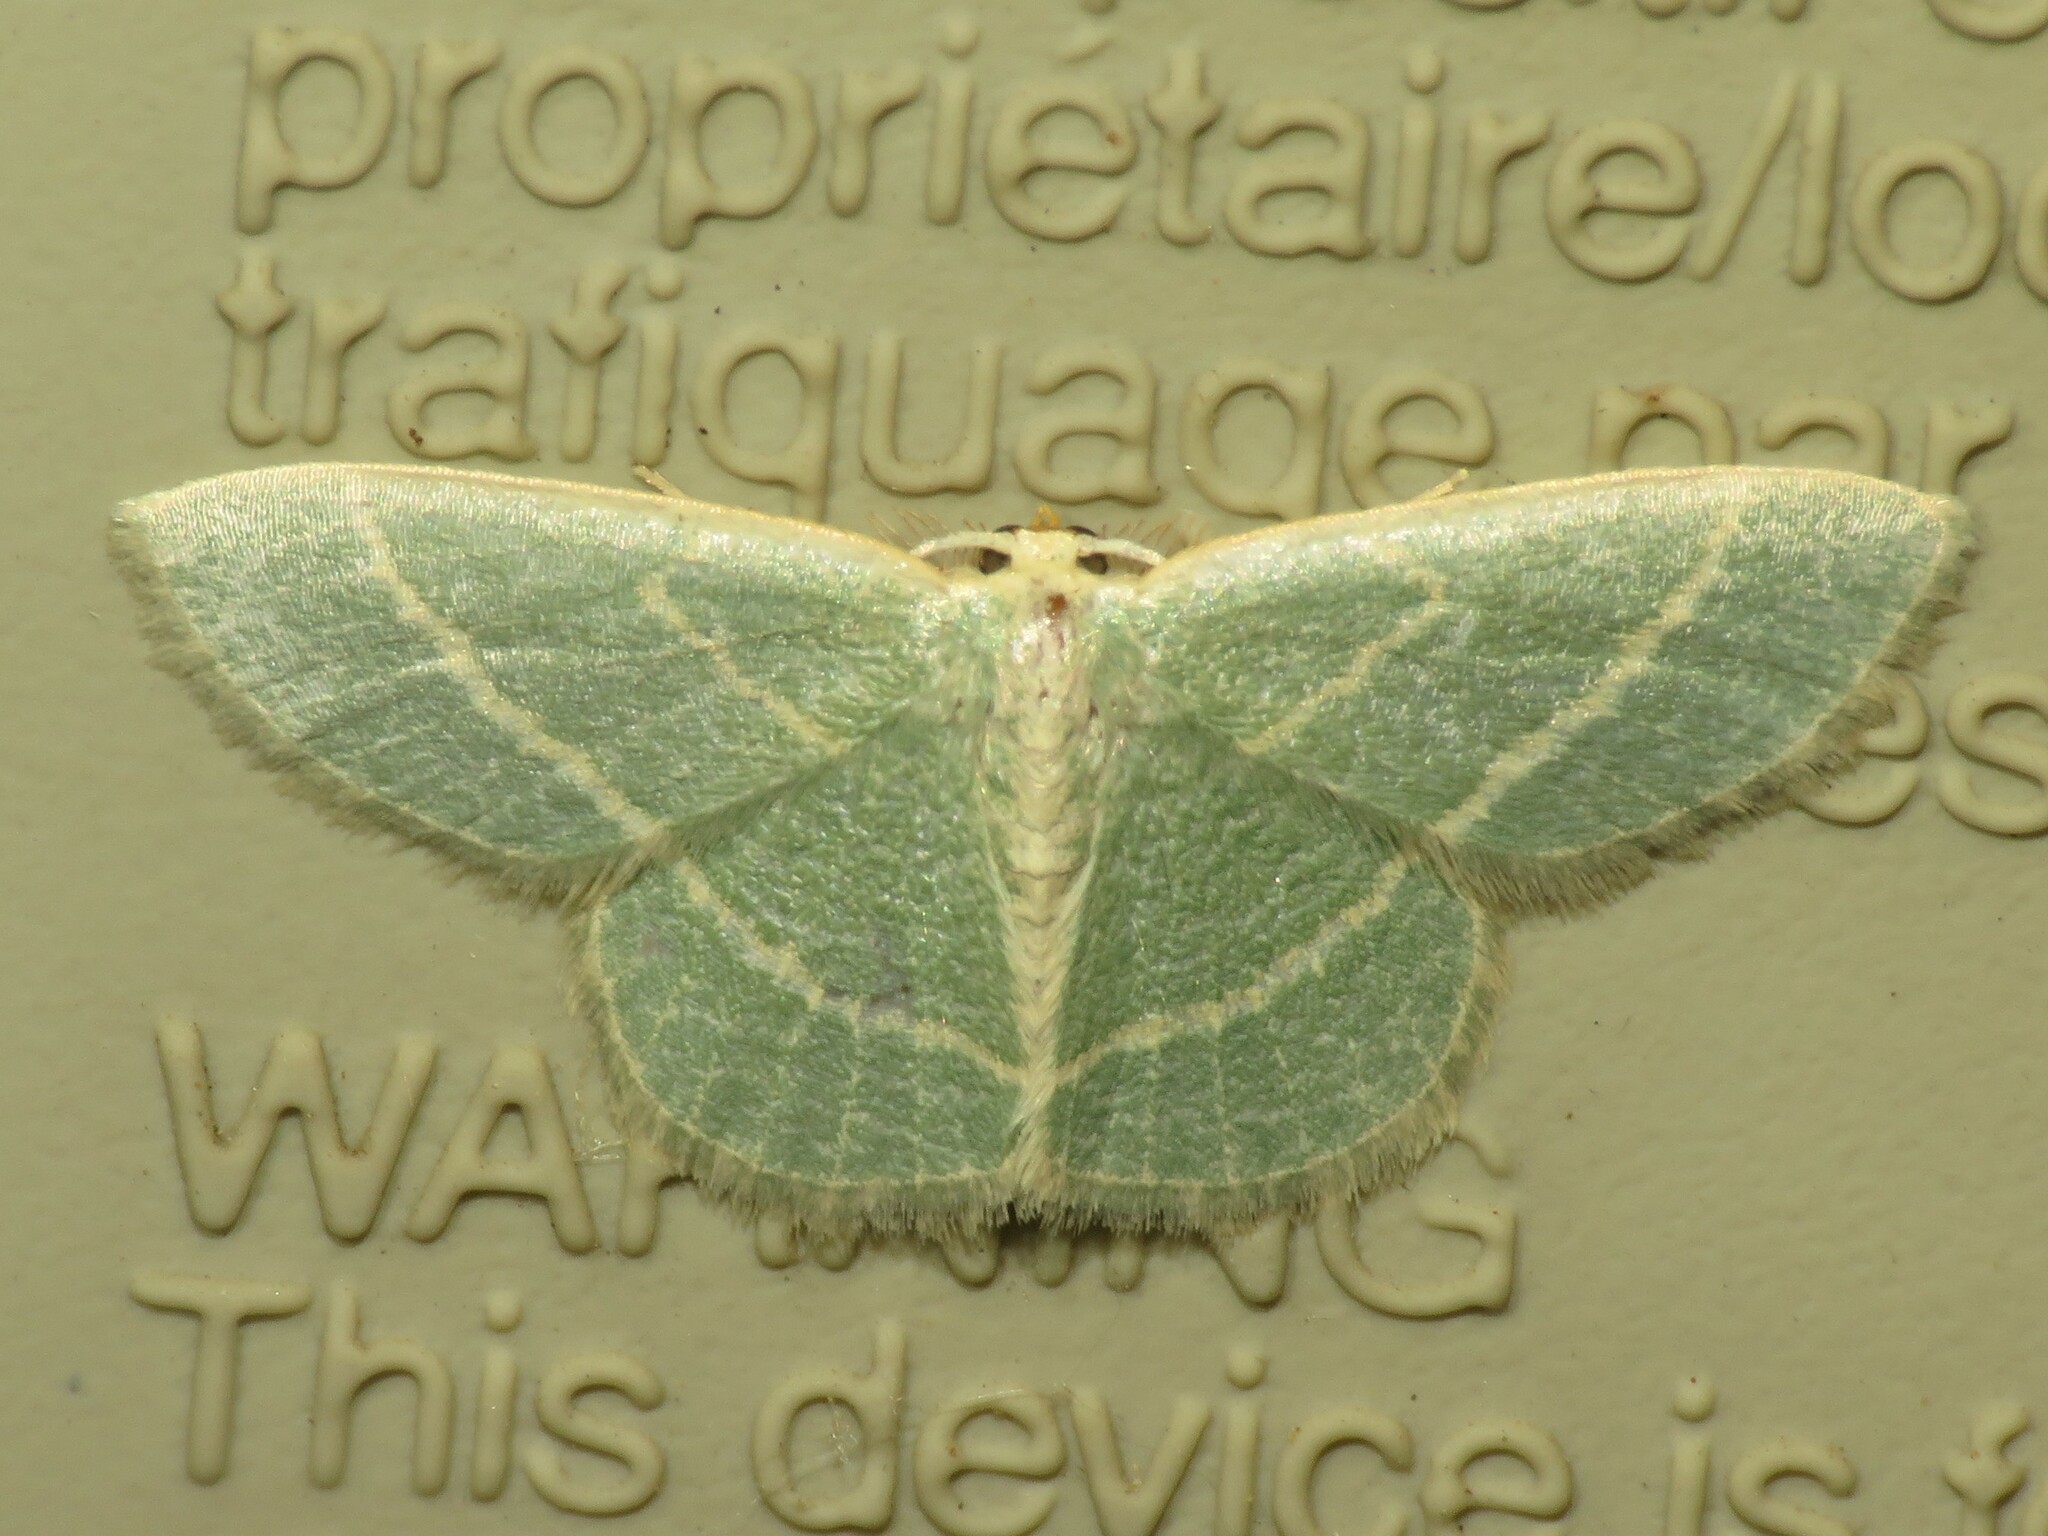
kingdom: Animalia
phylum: Arthropoda
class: Insecta
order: Lepidoptera
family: Geometridae
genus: Chlorochlamys
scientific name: Chlorochlamys chloroleucaria
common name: Blackberry looper
